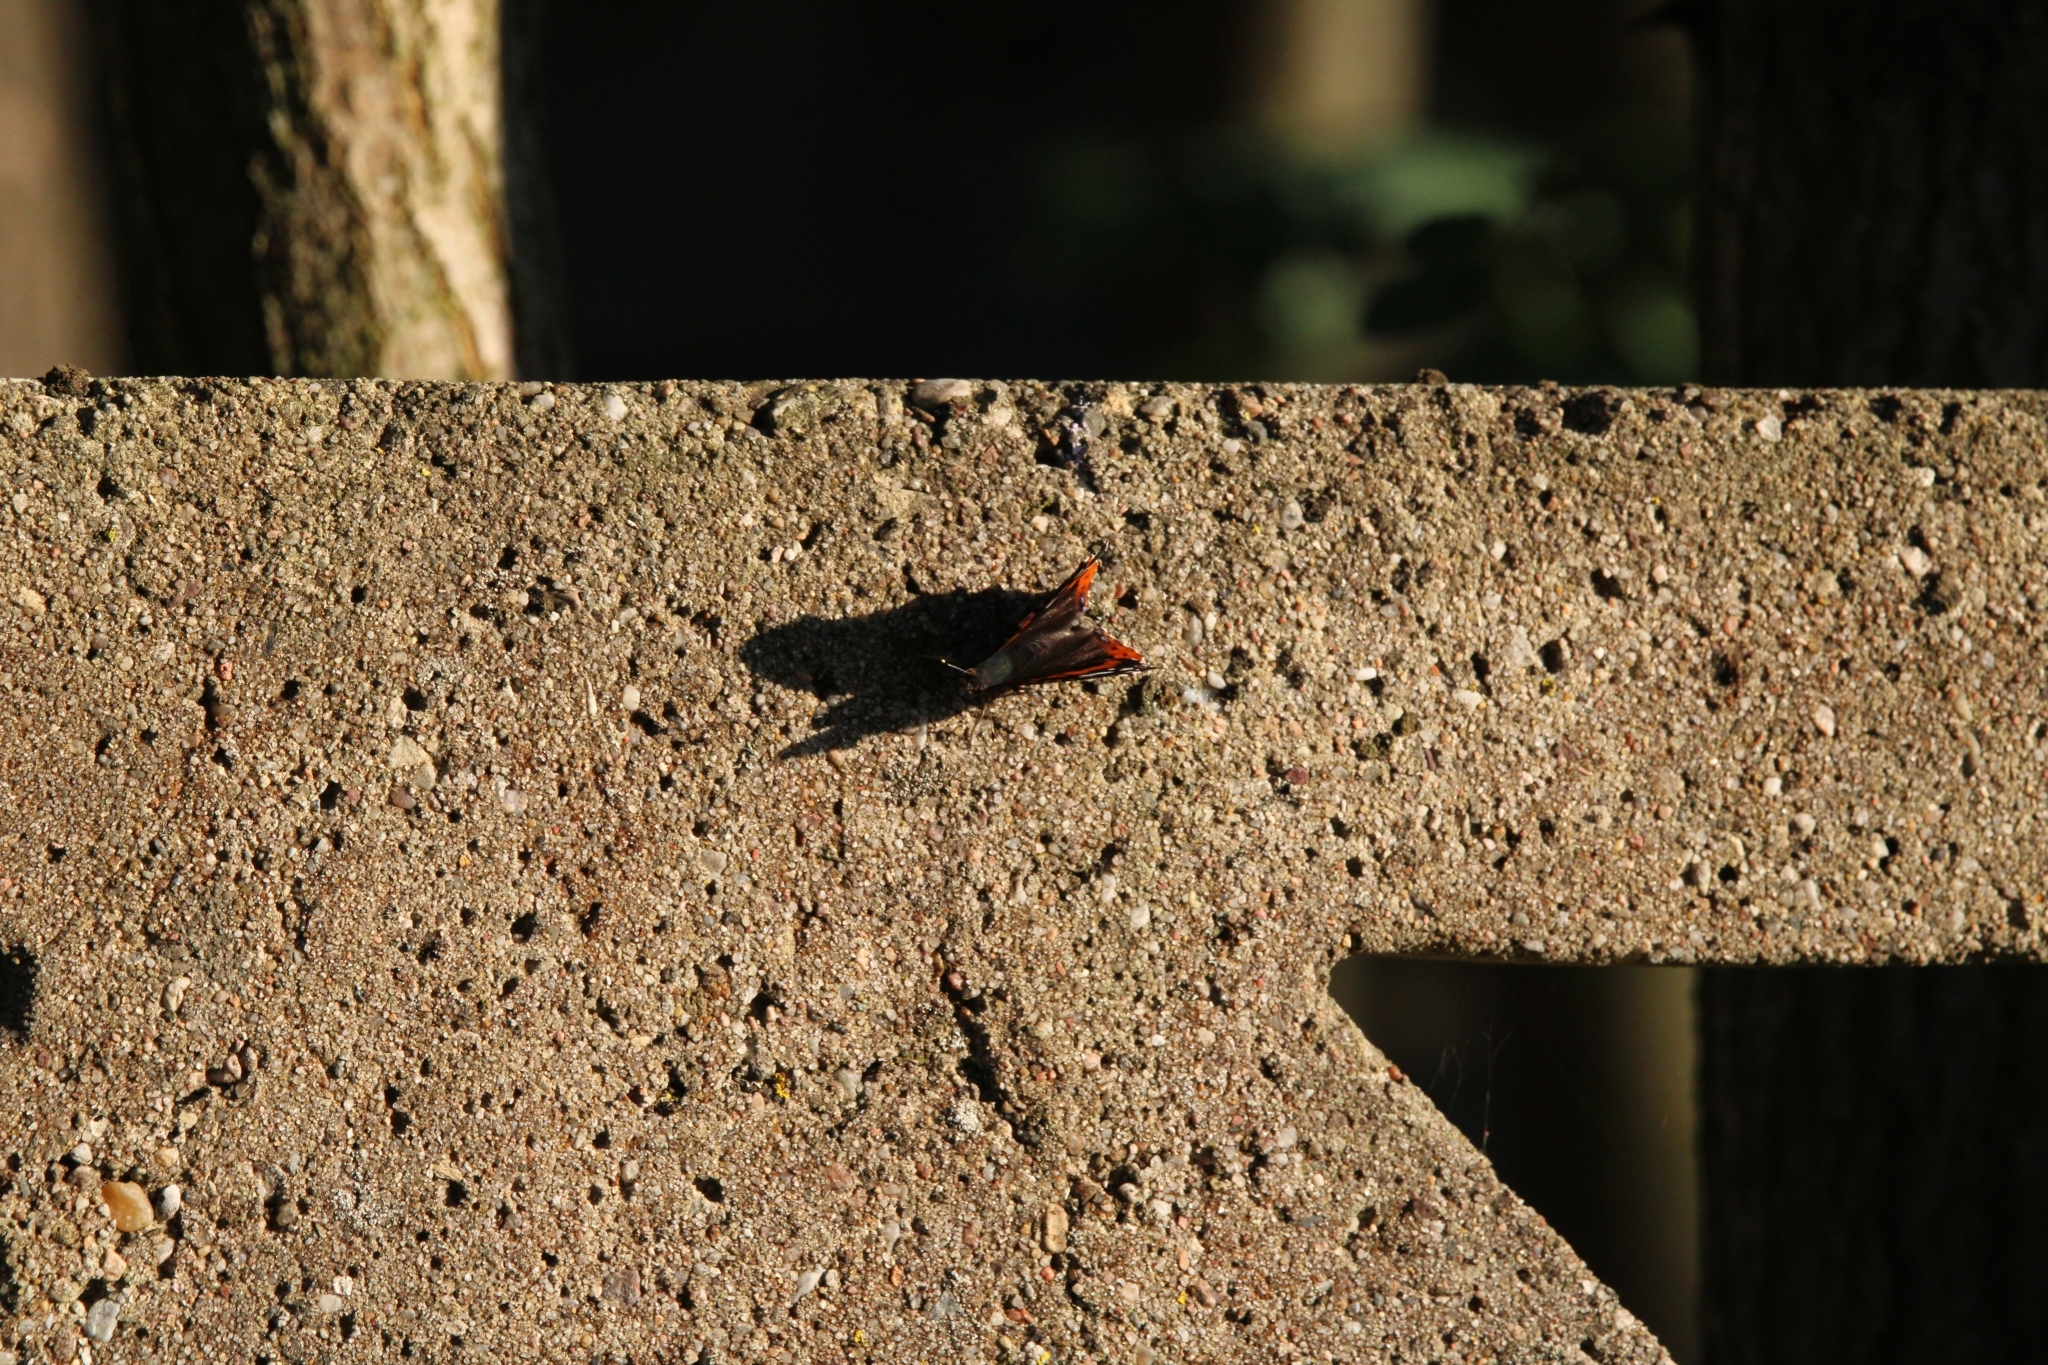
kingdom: Animalia
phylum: Arthropoda
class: Insecta
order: Lepidoptera
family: Nymphalidae
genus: Vanessa
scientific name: Vanessa atalanta
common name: Red admiral
